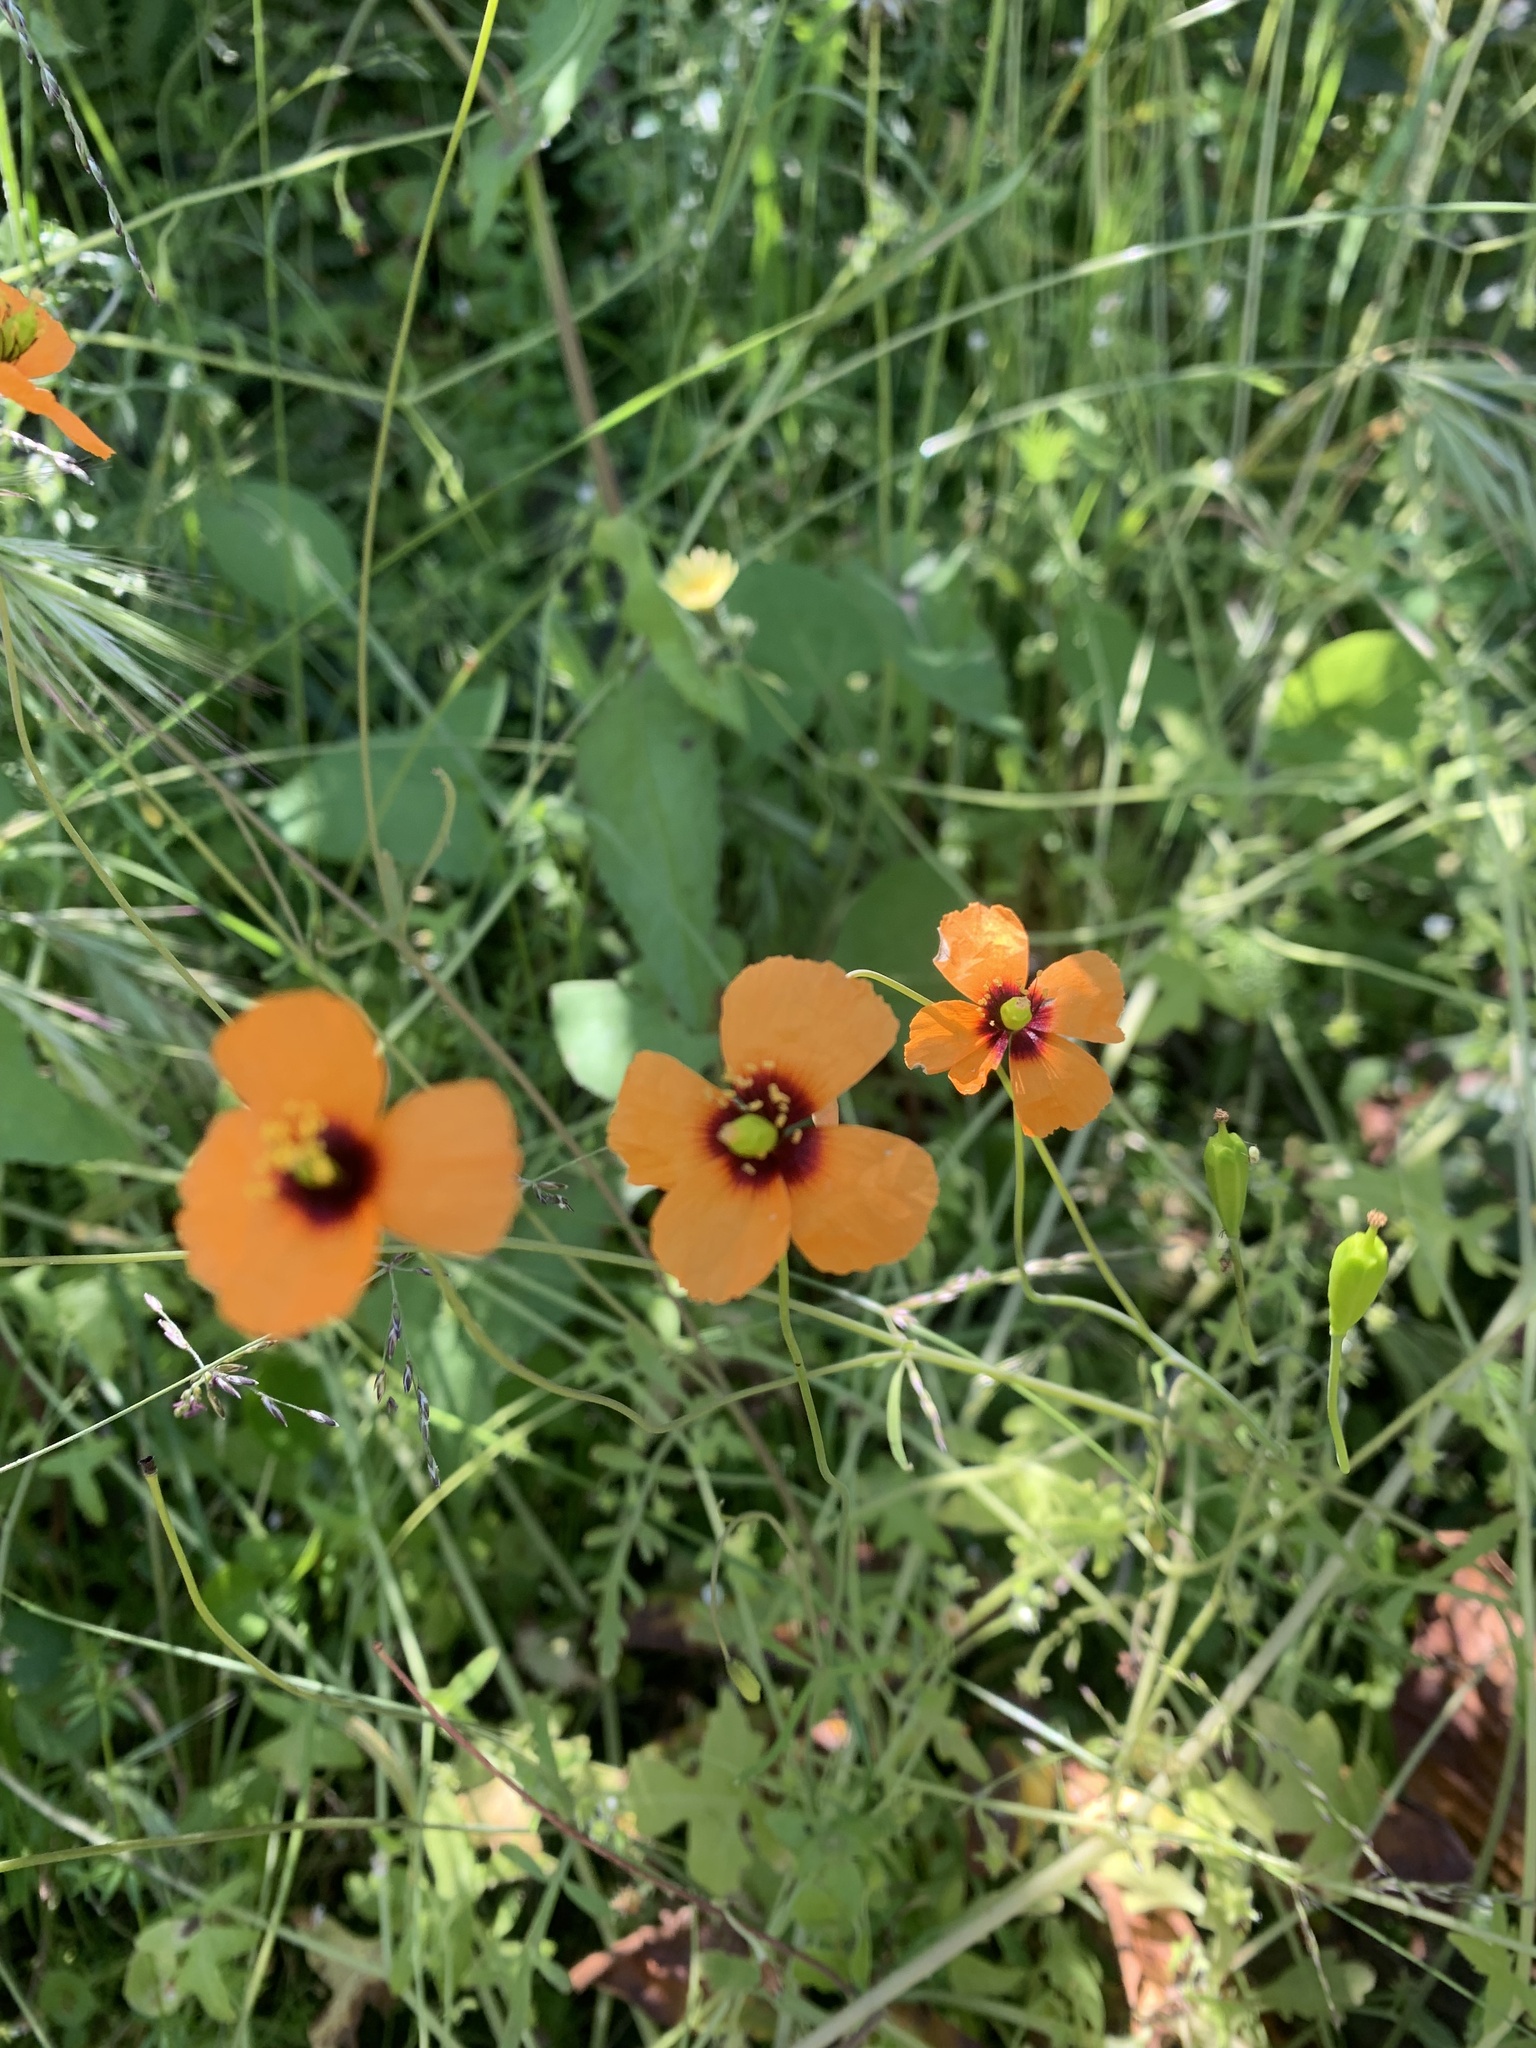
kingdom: Plantae
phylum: Tracheophyta
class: Magnoliopsida
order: Ranunculales
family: Papaveraceae
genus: Stylomecon
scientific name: Stylomecon heterophylla
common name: Flaming-poppy
